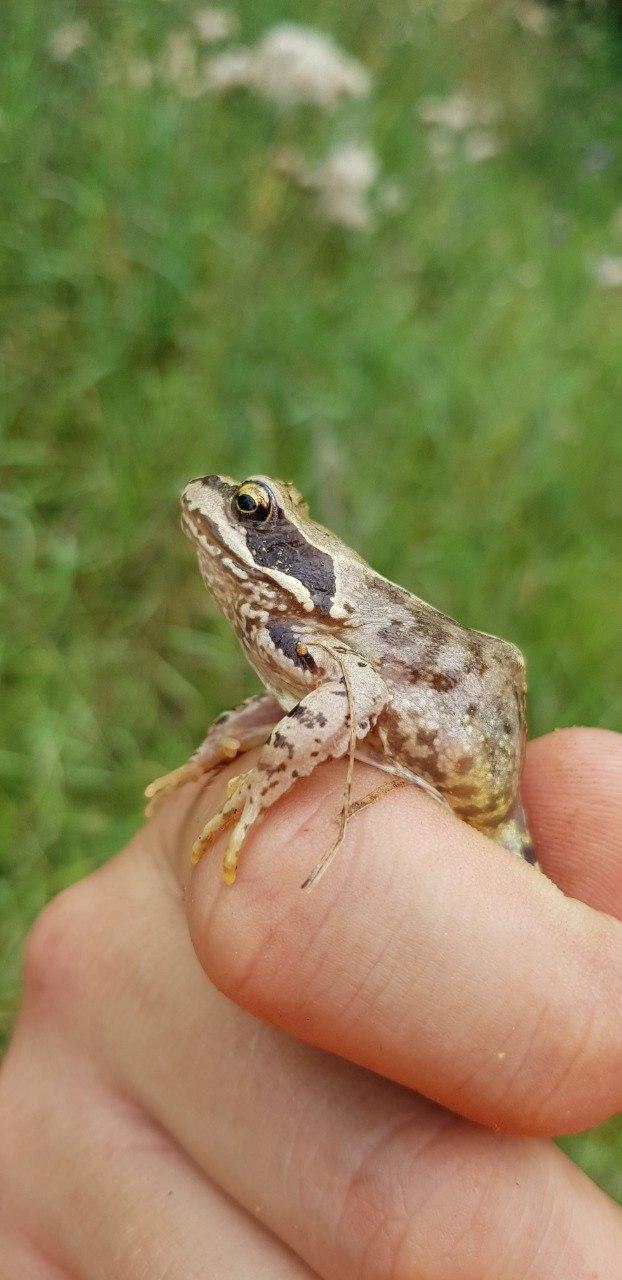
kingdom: Animalia
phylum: Chordata
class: Amphibia
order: Anura
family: Ranidae
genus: Rana
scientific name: Rana temporaria
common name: Common frog
